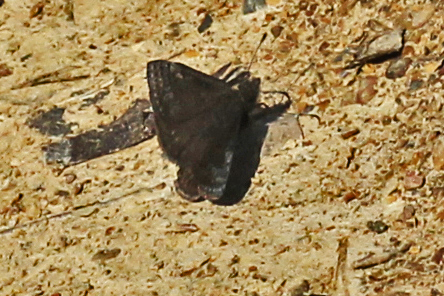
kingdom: Animalia
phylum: Arthropoda
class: Insecta
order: Lepidoptera
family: Hesperiidae
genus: Erynnis
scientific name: Erynnis brizo
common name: Sleepy duskywing
